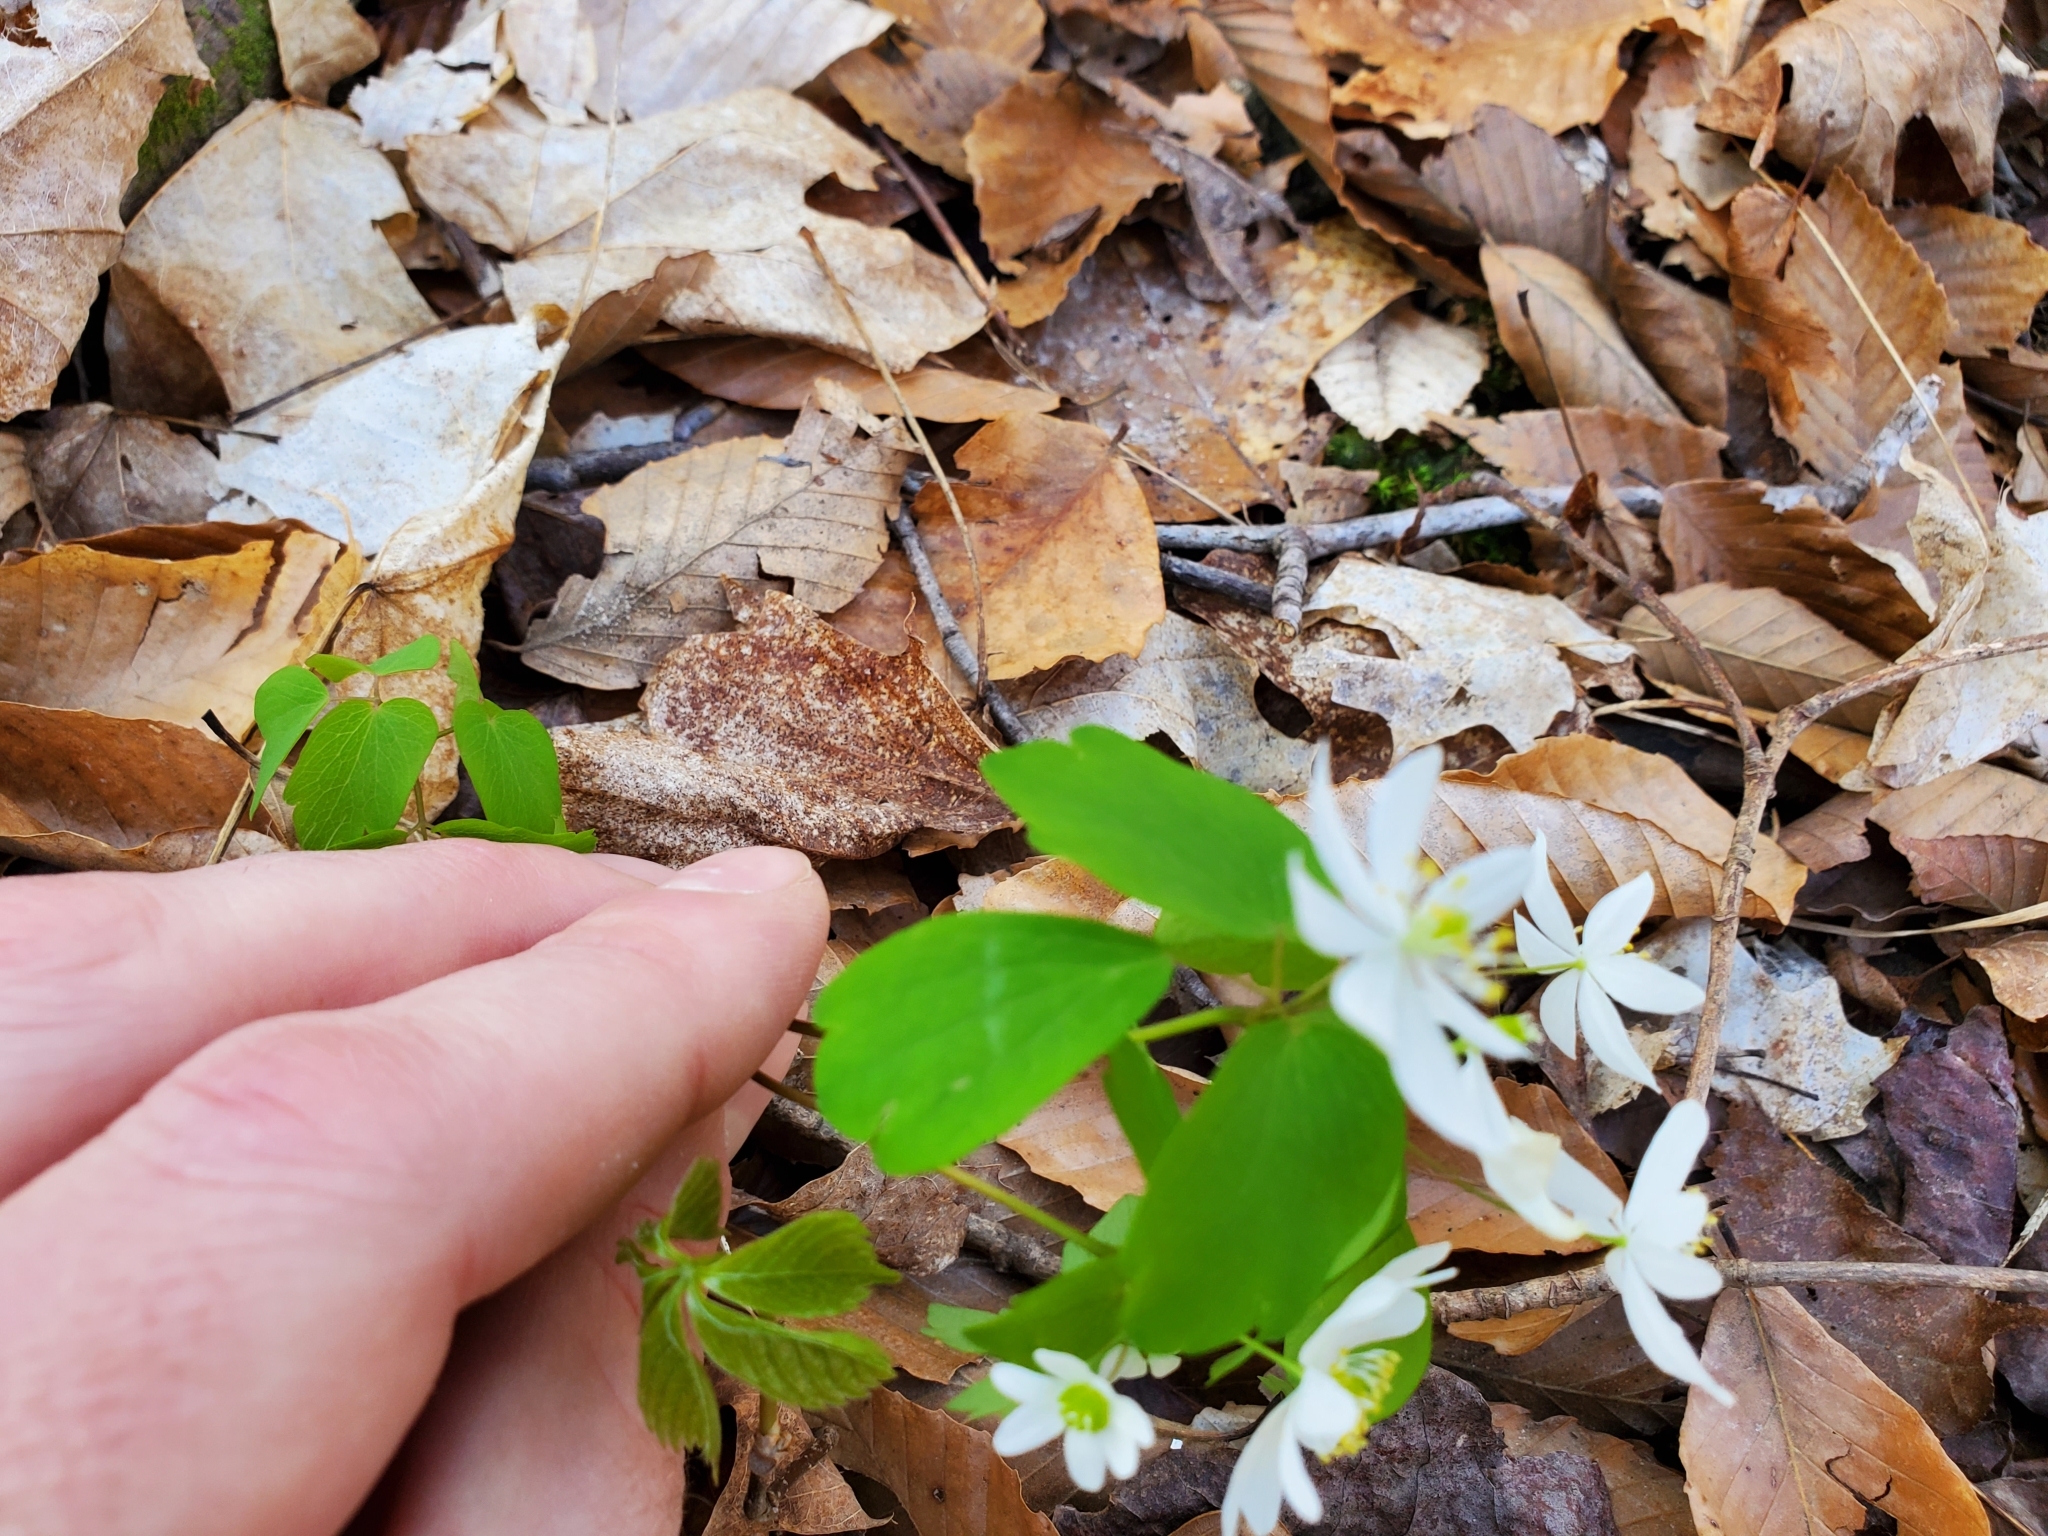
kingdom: Plantae
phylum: Tracheophyta
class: Magnoliopsida
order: Ranunculales
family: Ranunculaceae
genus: Thalictrum
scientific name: Thalictrum thalictroides
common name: Rue-anemone
